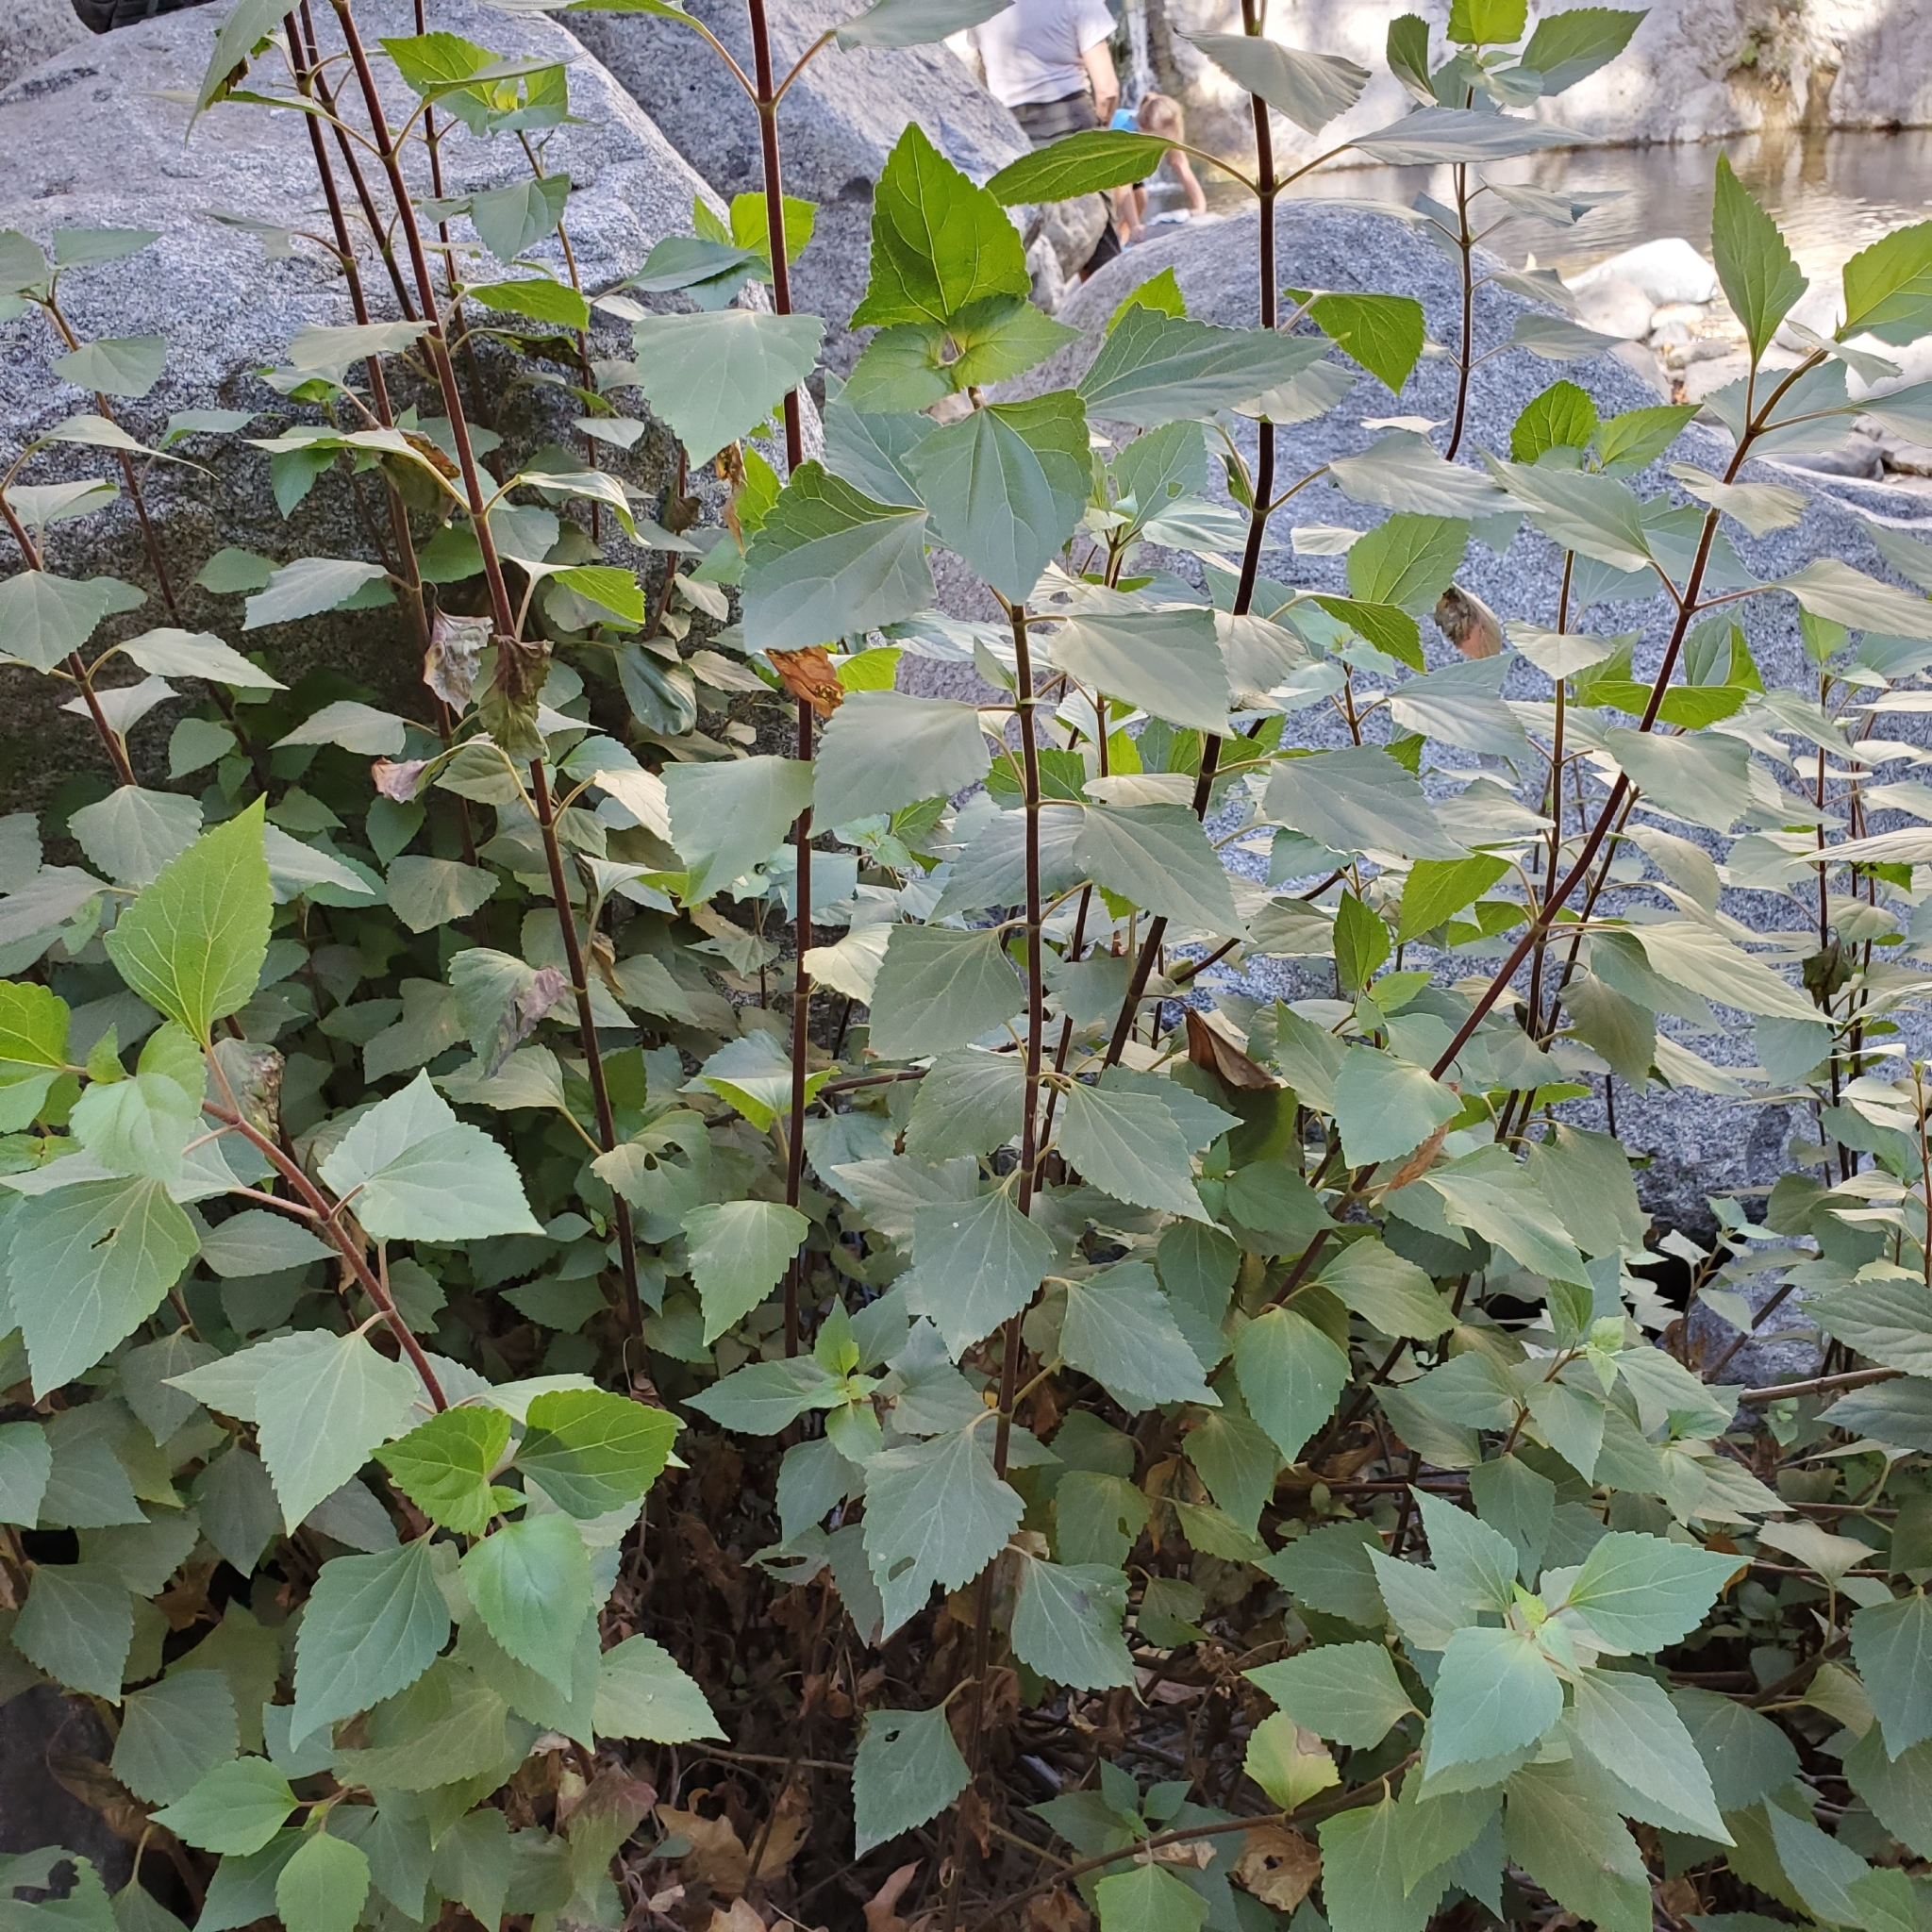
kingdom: Plantae
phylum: Tracheophyta
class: Magnoliopsida
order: Asterales
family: Asteraceae
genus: Ageratina
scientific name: Ageratina adenophora
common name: Sticky snakeroot
